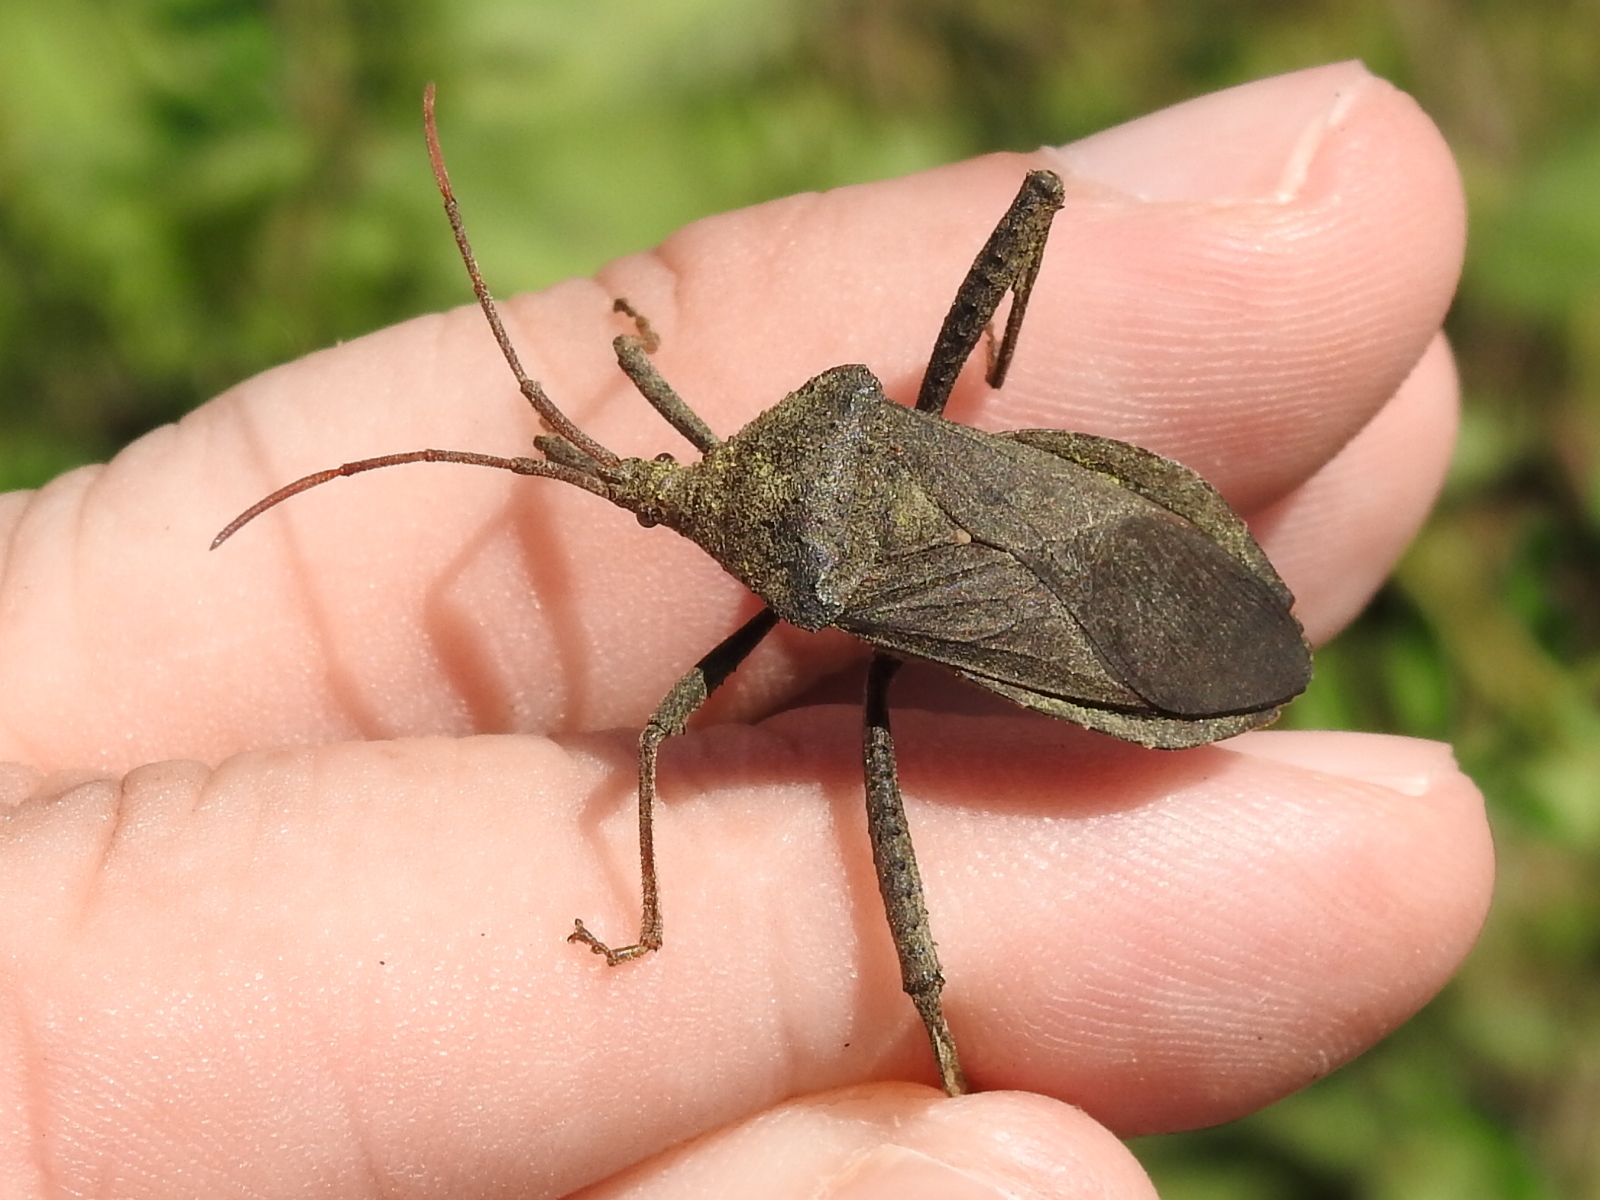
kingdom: Animalia
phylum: Arthropoda
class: Insecta
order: Hemiptera
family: Coreidae
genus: Acanthocephala
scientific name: Acanthocephala femorata
